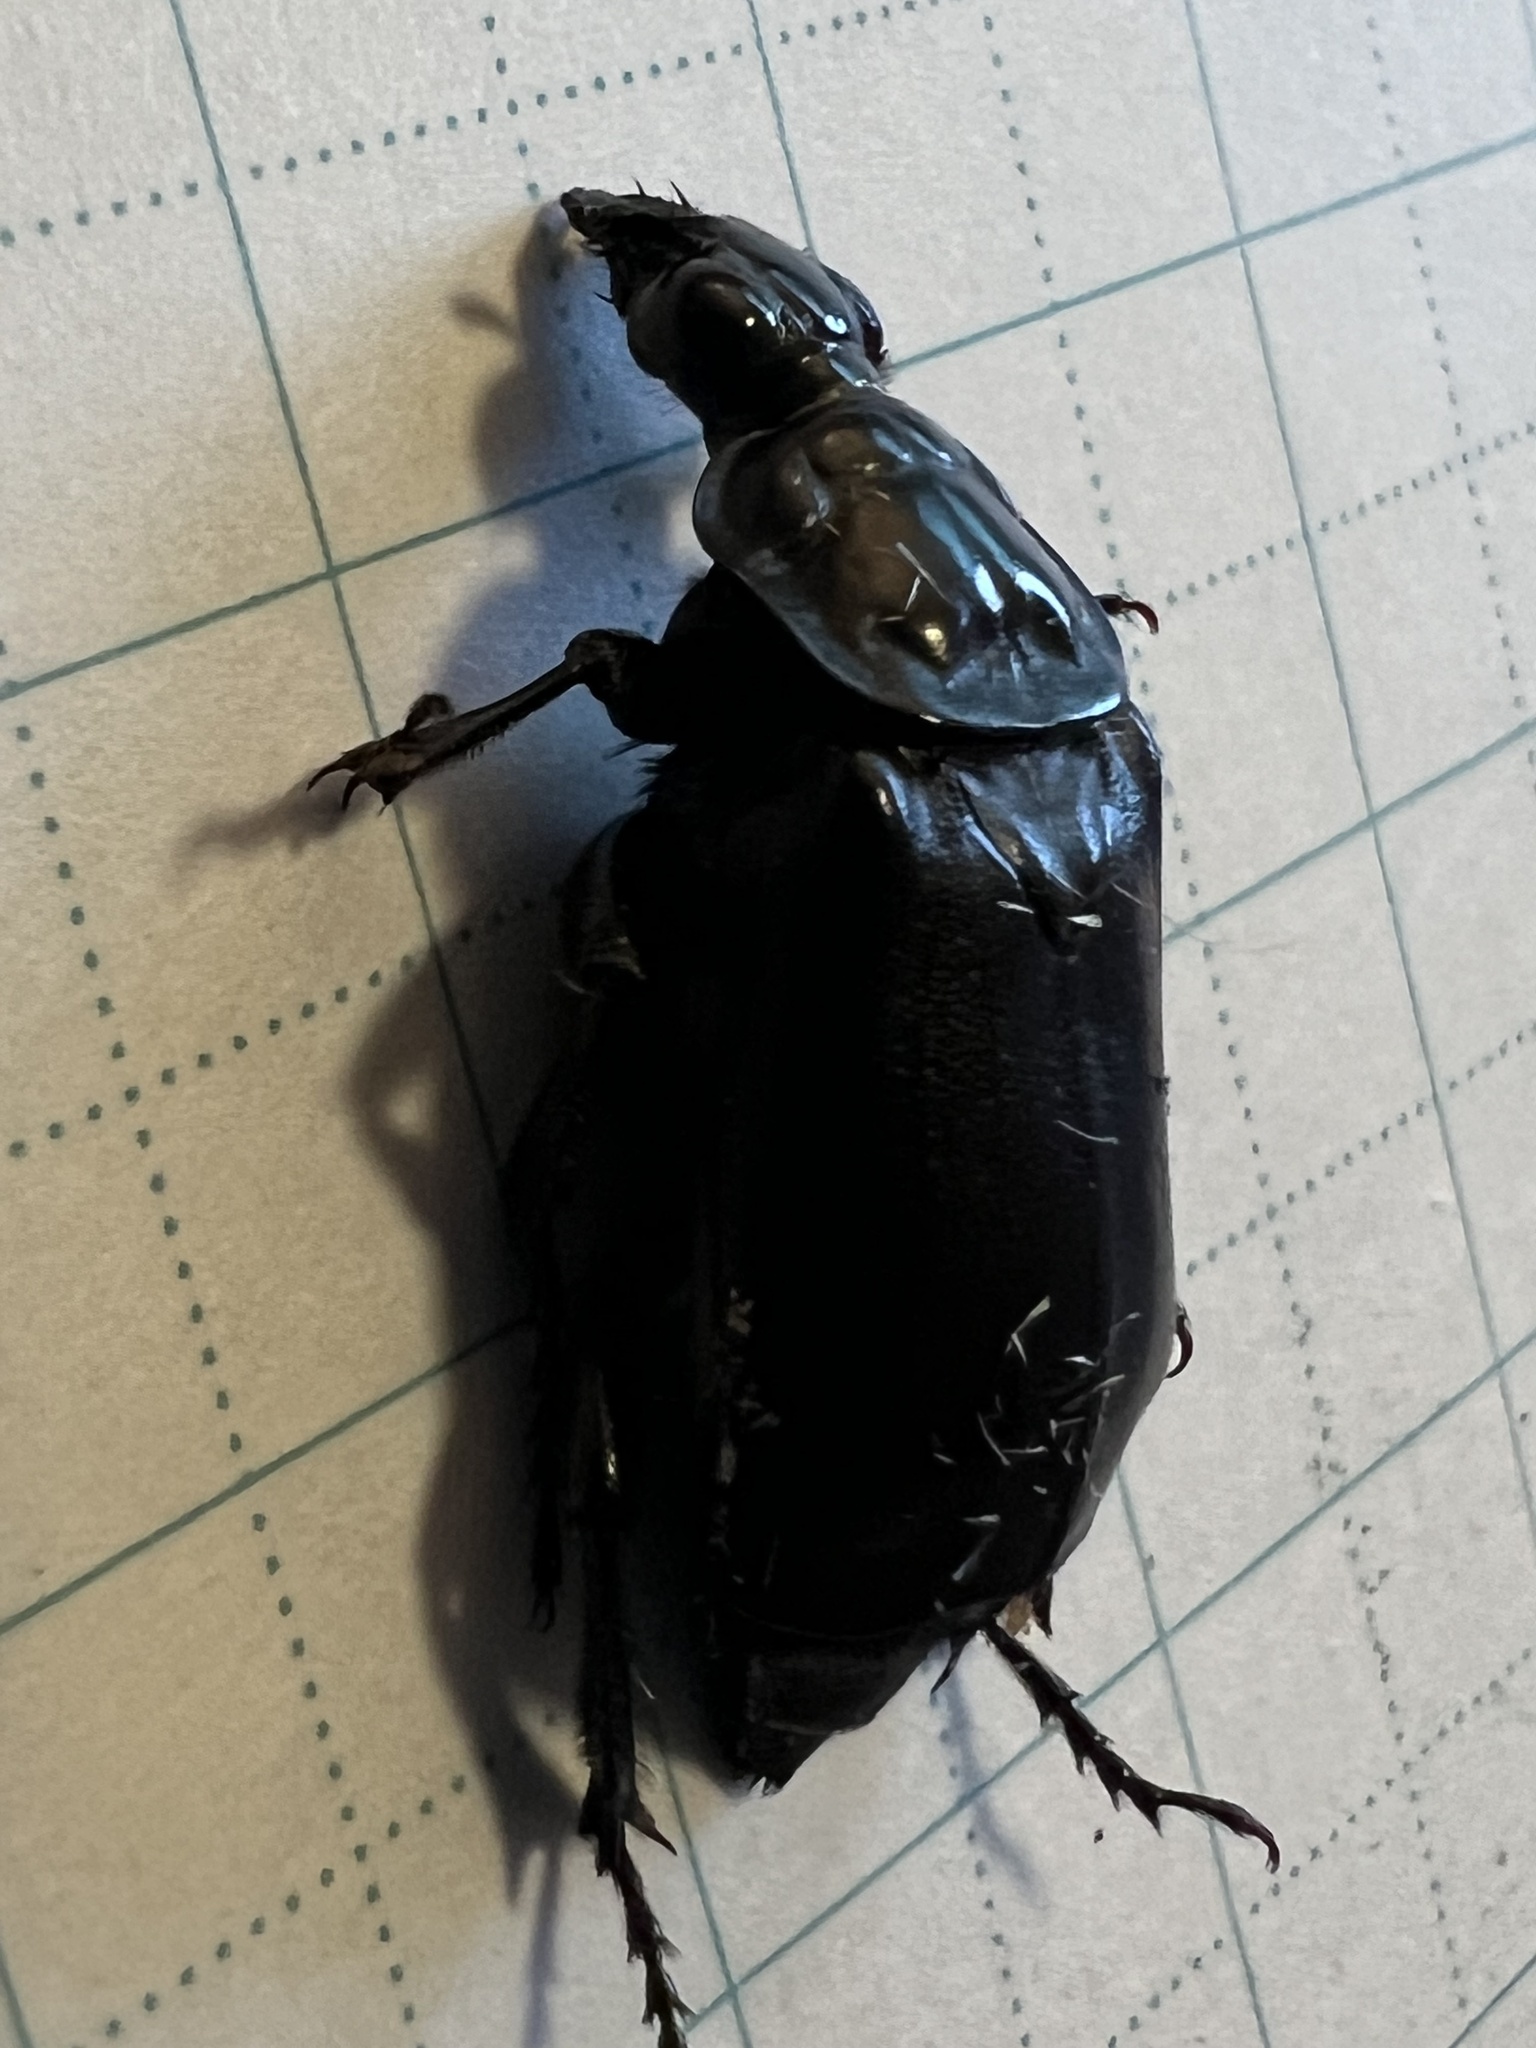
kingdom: Animalia
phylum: Arthropoda
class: Insecta
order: Coleoptera
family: Staphylinidae
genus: Nicrophorus
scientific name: Nicrophorus nigrita
